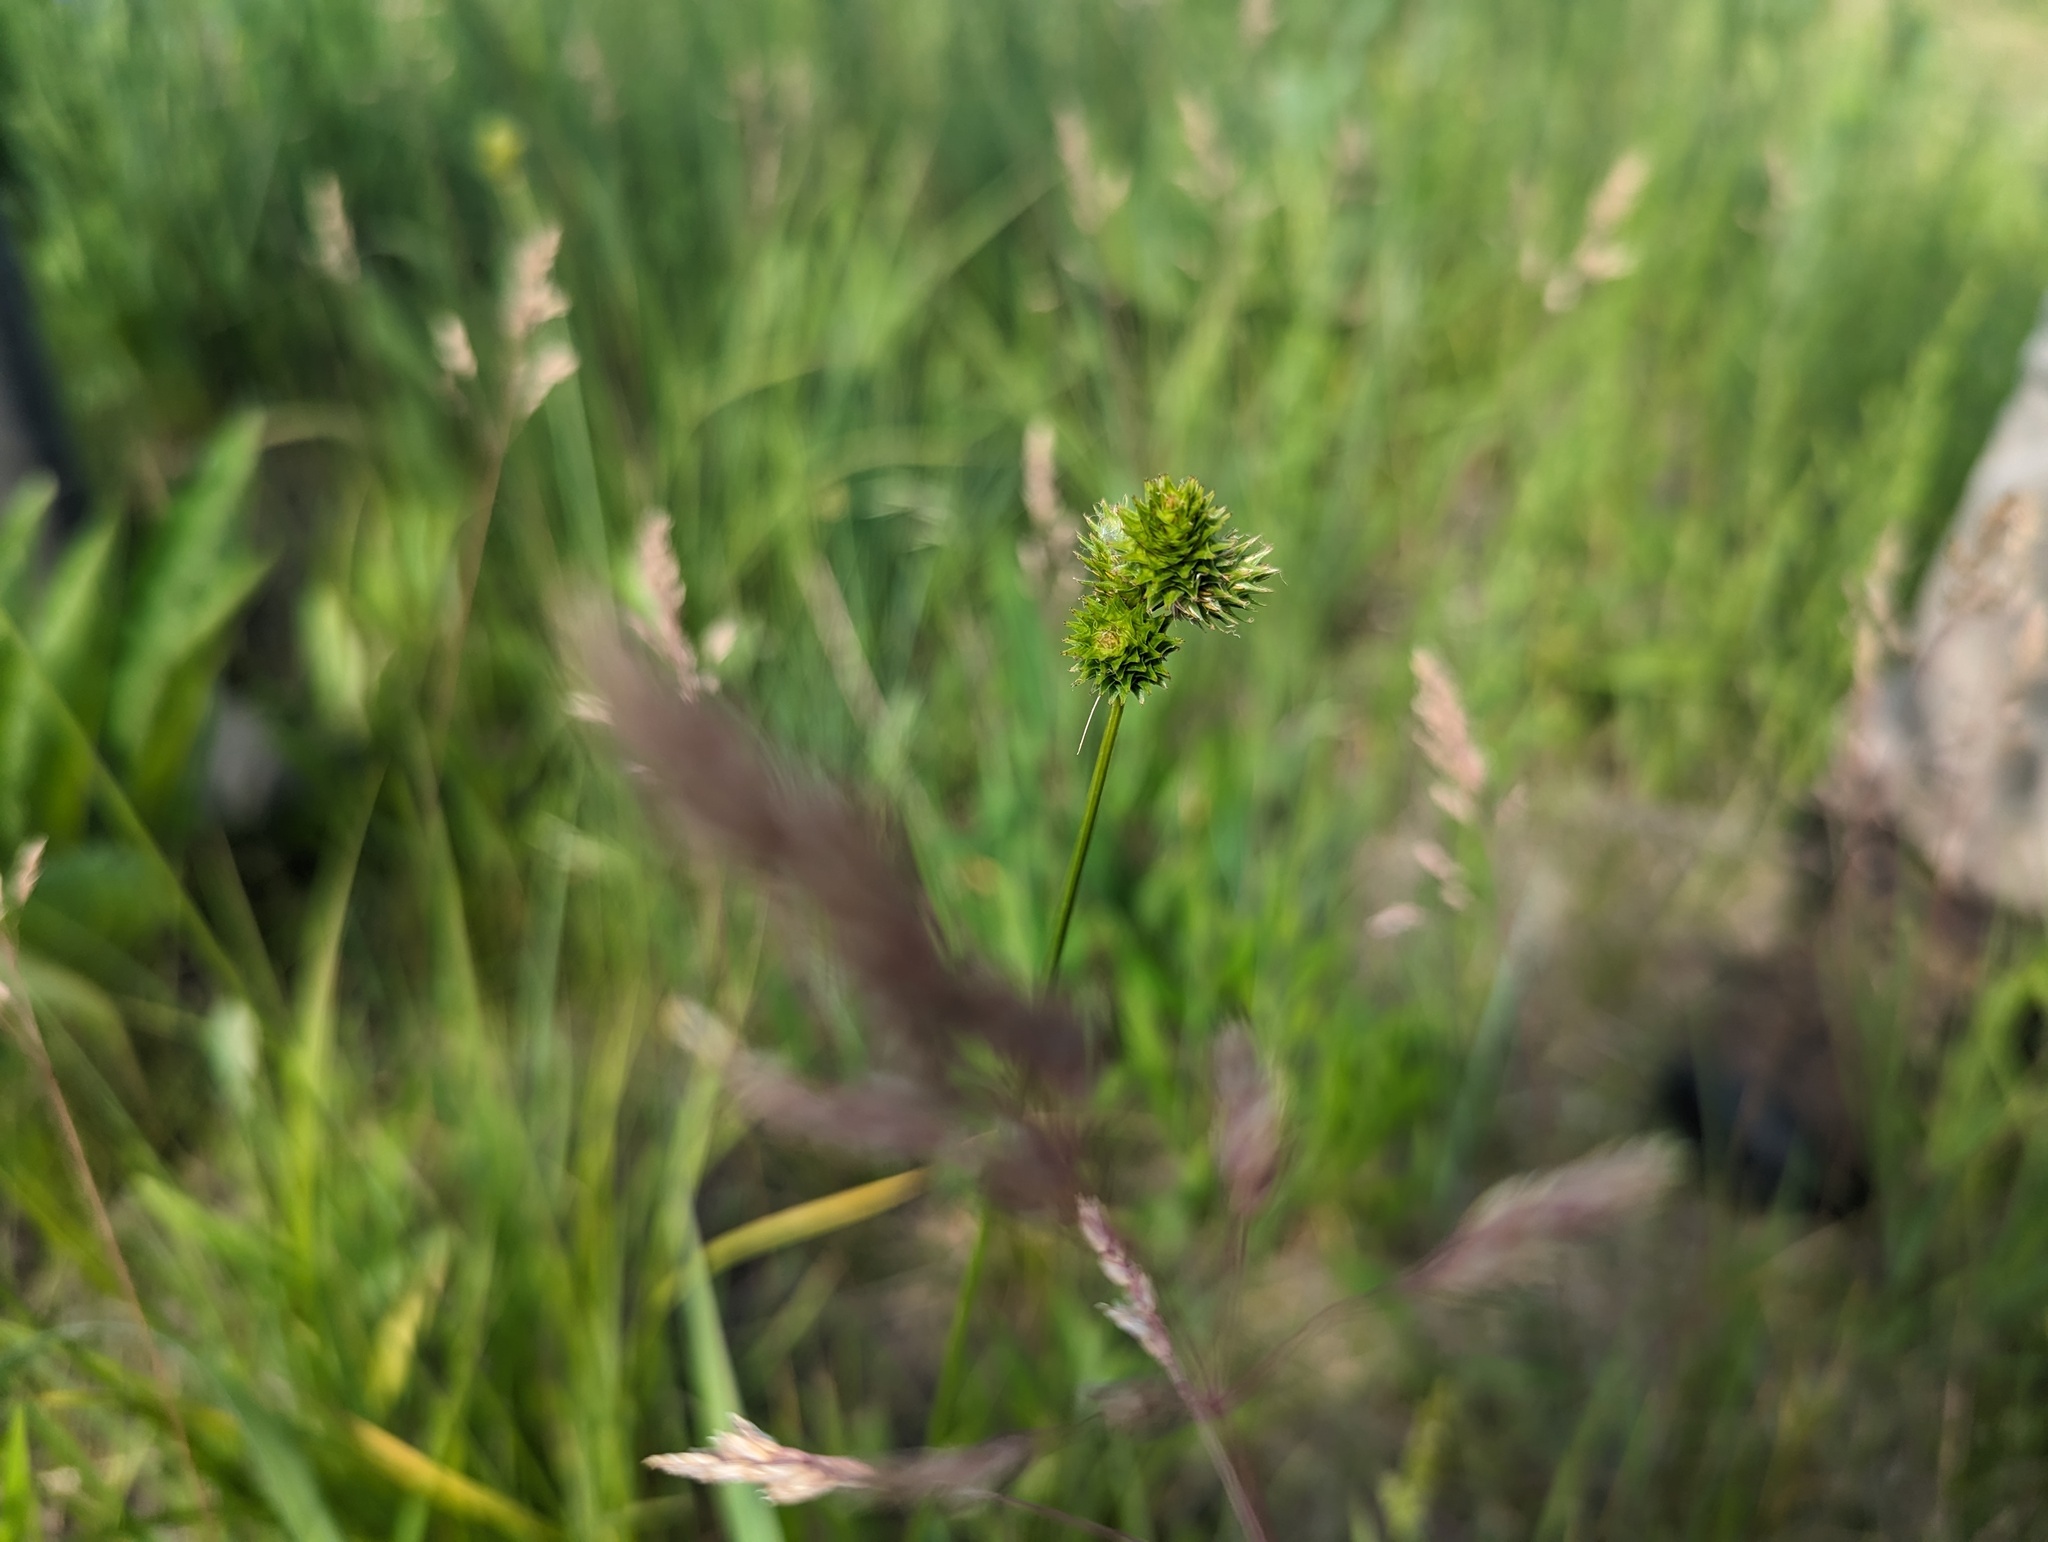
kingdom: Plantae
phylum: Tracheophyta
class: Liliopsida
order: Poales
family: Cyperaceae
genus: Carex
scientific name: Carex molesta
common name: Troublesome sedge
